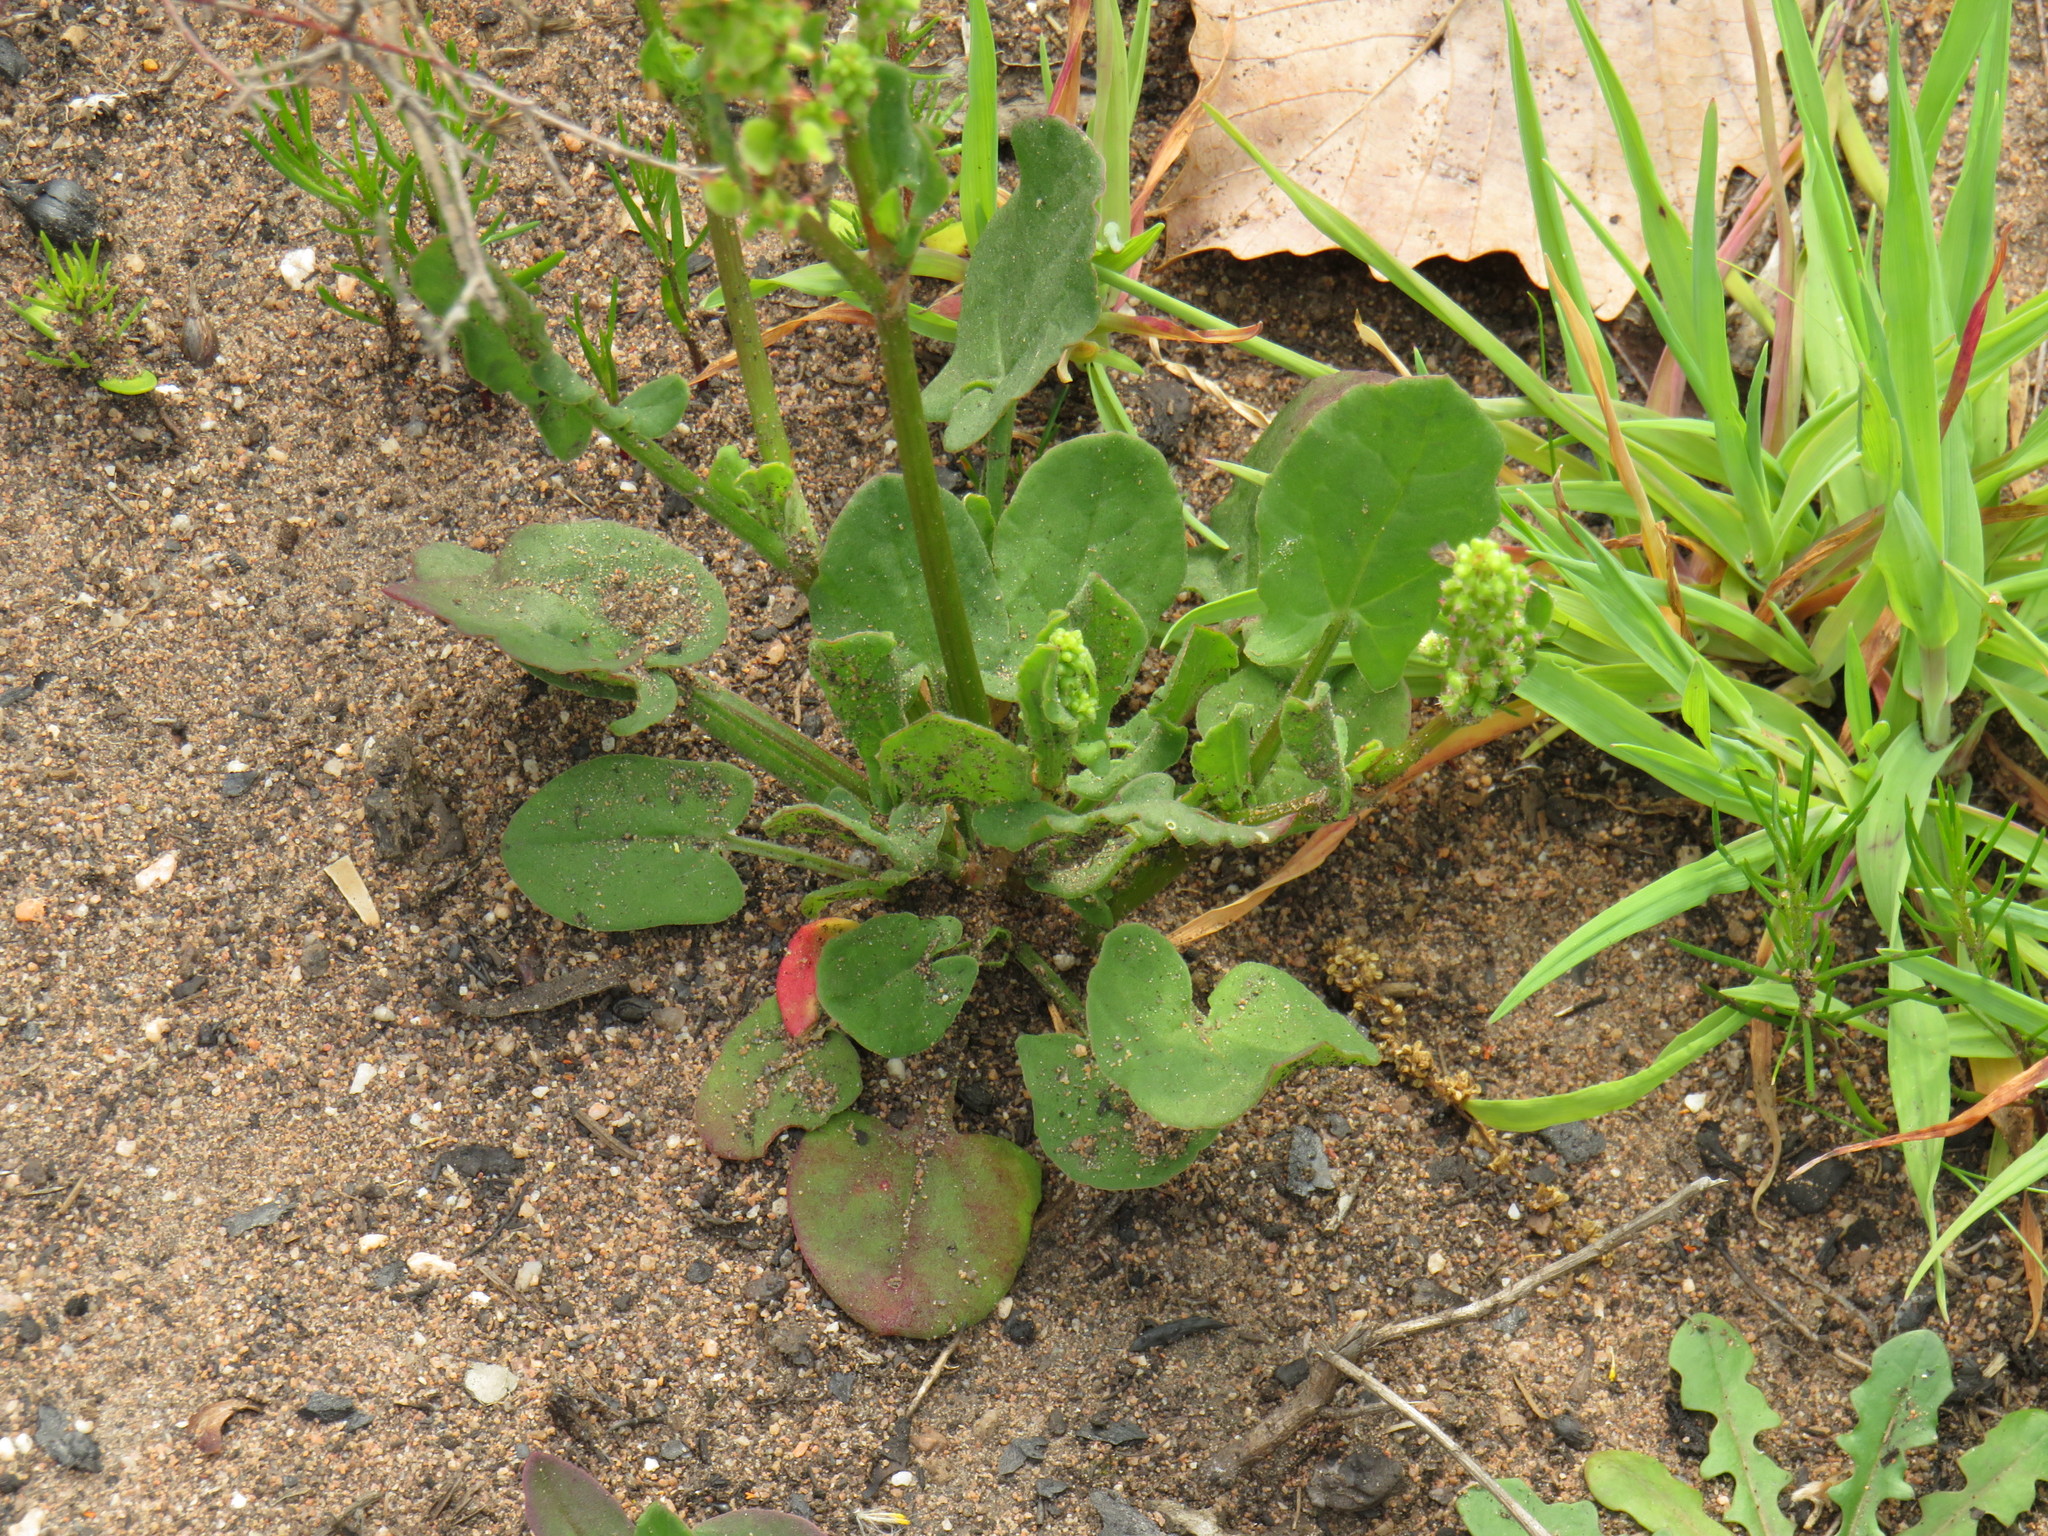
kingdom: Plantae
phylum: Tracheophyta
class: Magnoliopsida
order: Caryophyllales
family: Polygonaceae
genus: Rumex
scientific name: Rumex cordatus
